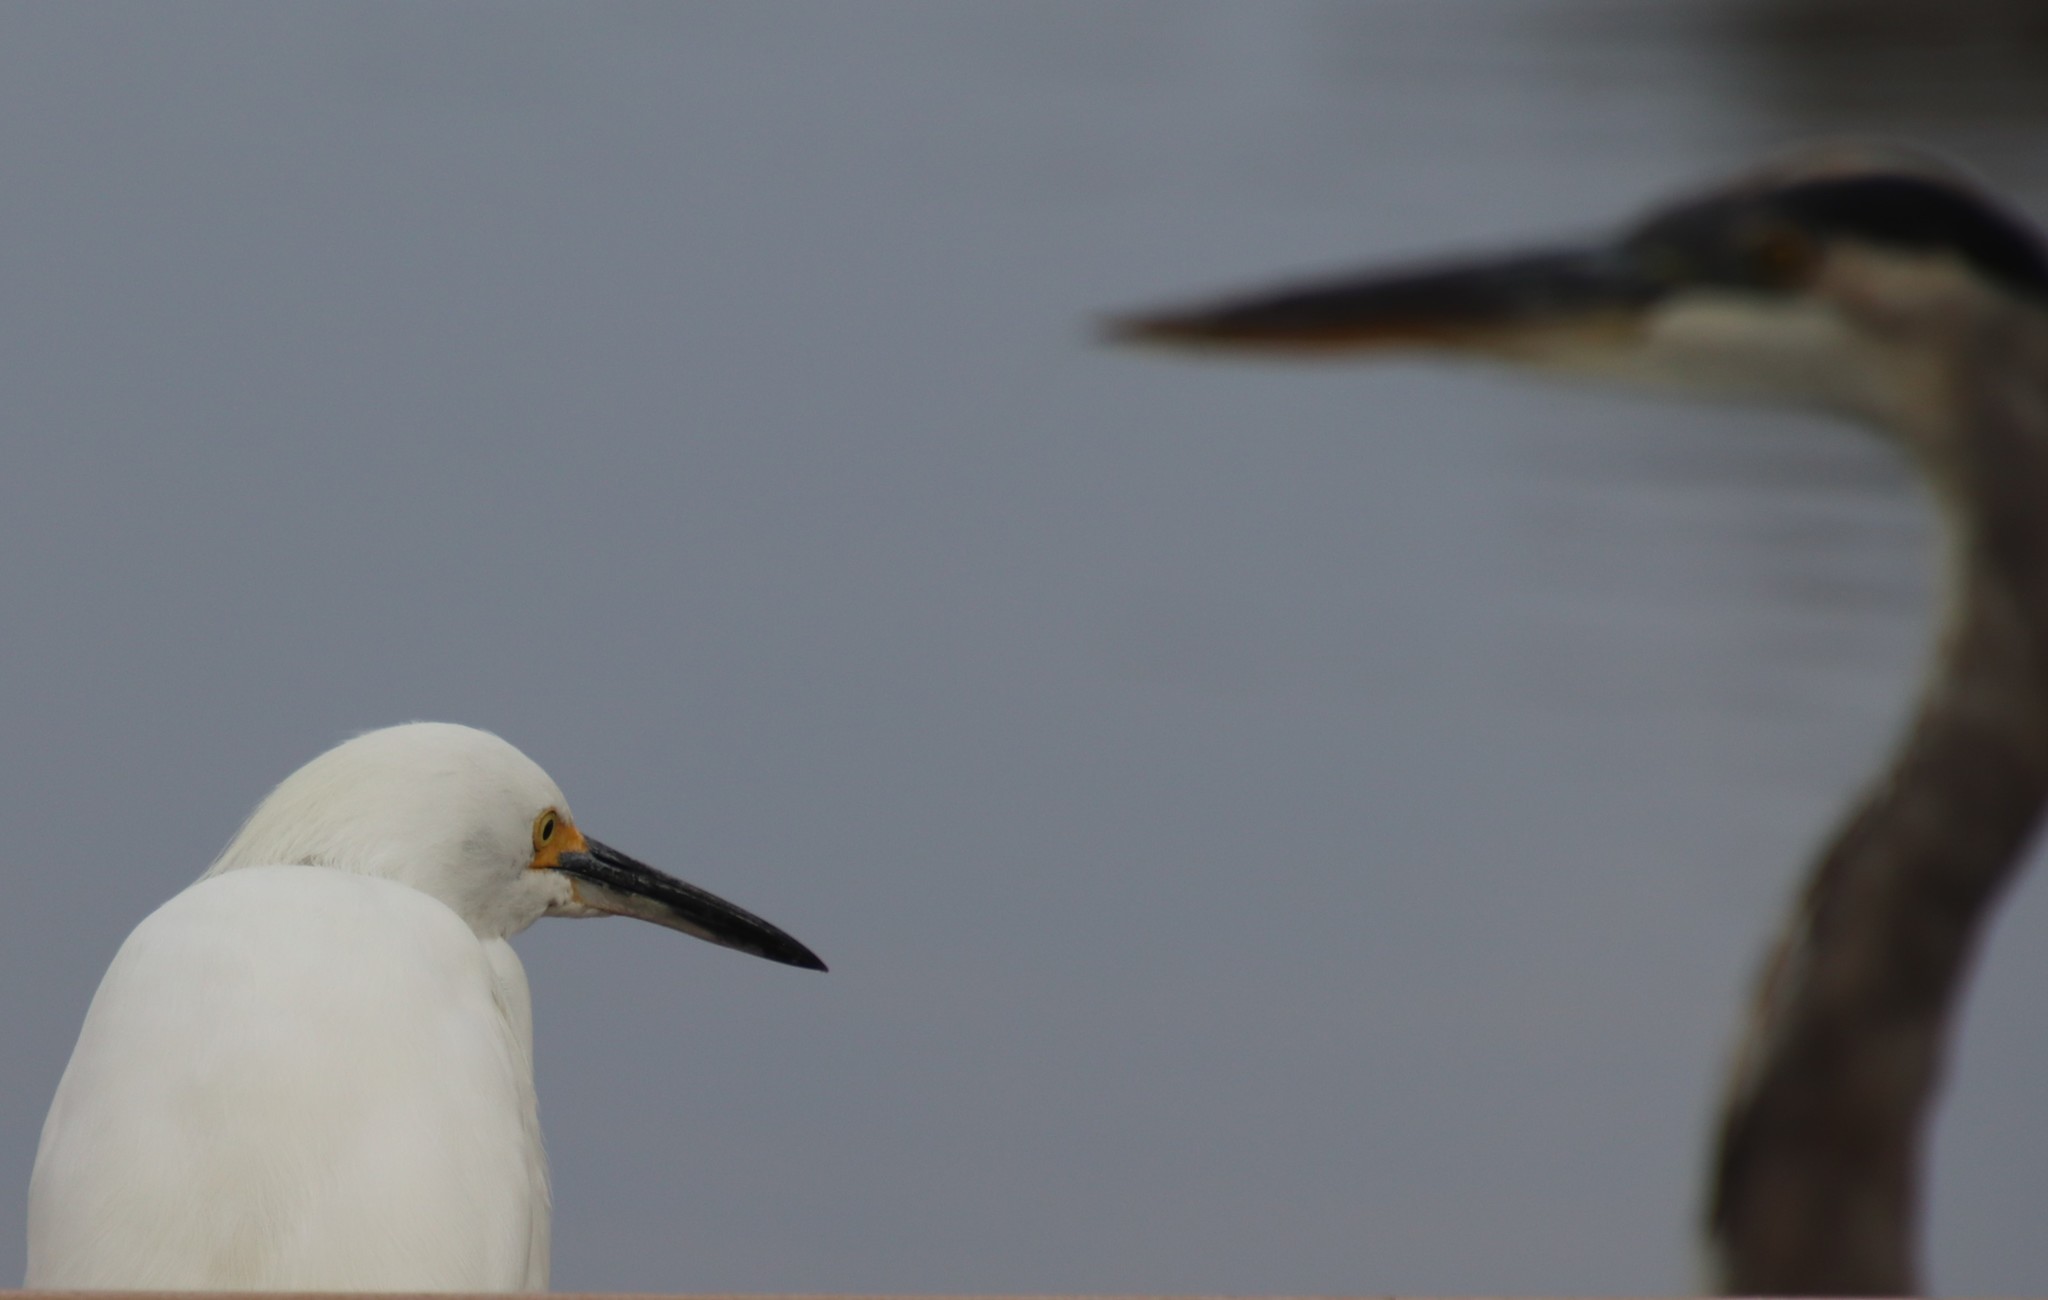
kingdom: Animalia
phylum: Chordata
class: Aves
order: Pelecaniformes
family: Ardeidae
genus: Egretta
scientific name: Egretta thula
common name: Snowy egret
